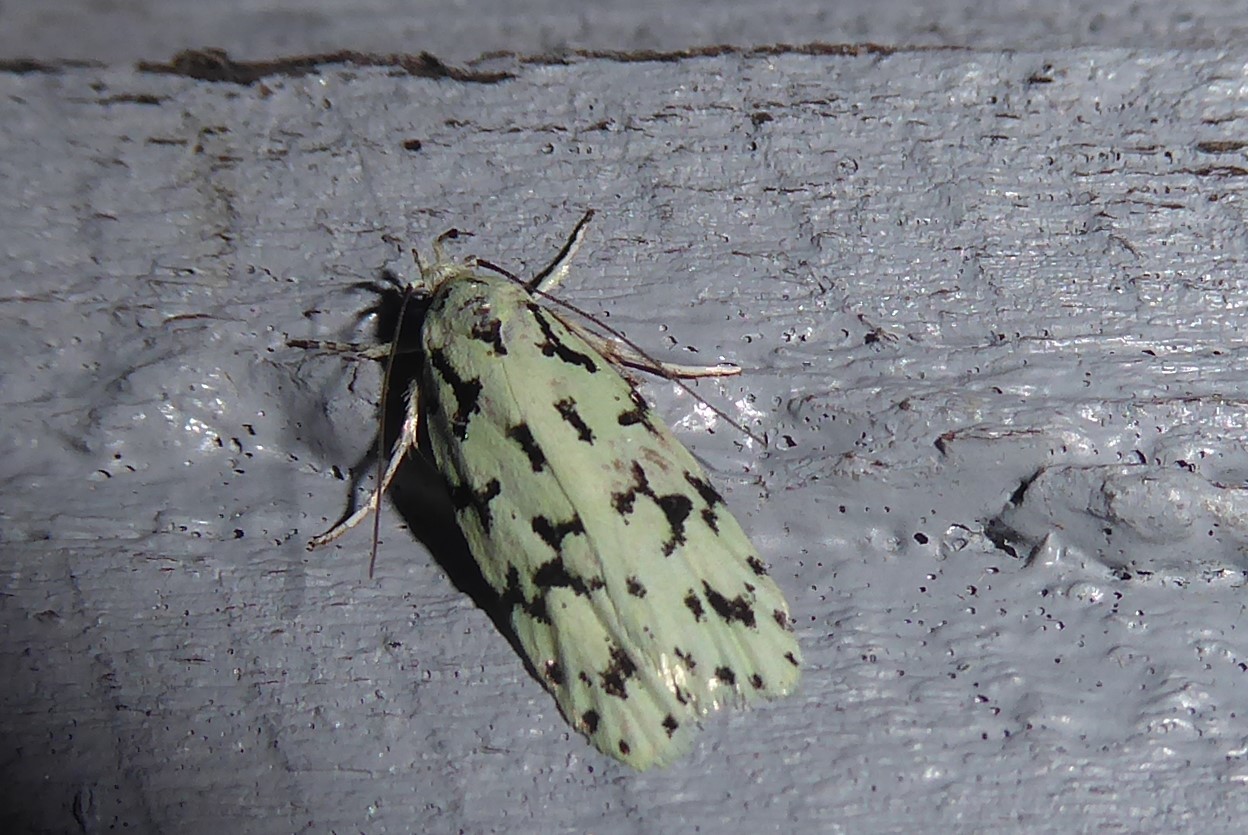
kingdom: Animalia
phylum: Arthropoda
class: Insecta
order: Lepidoptera
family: Oecophoridae
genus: Izatha
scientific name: Izatha huttoni
